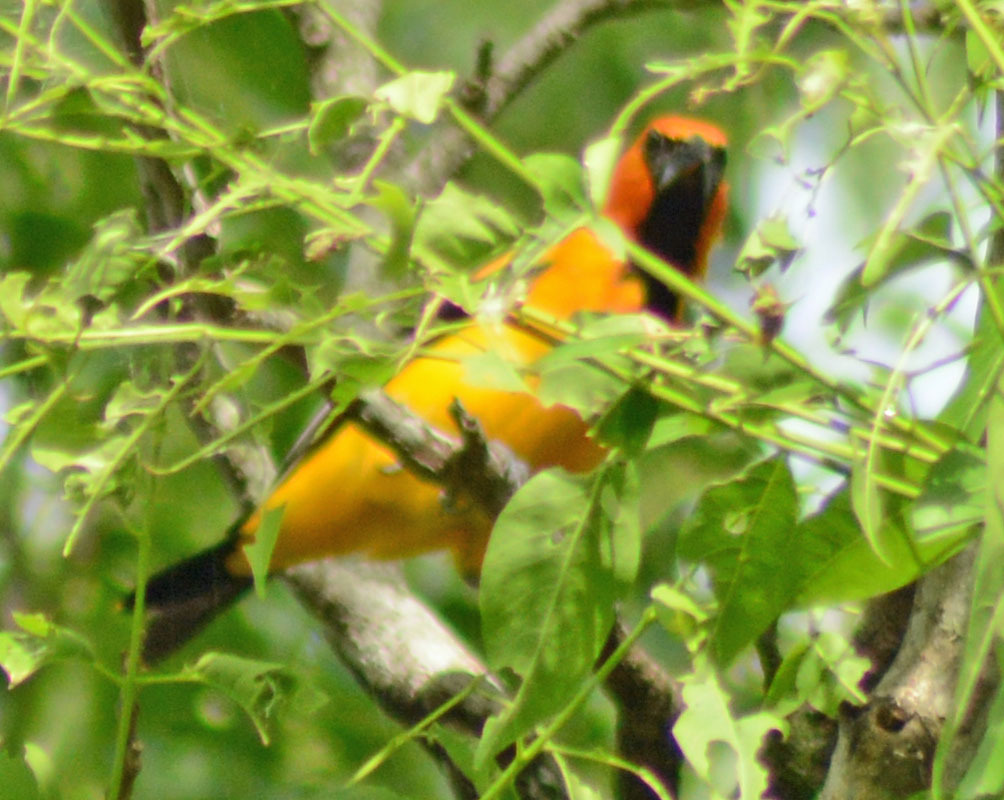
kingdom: Animalia
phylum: Chordata
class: Aves
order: Passeriformes
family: Icteridae
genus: Icterus
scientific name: Icterus gularis
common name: Altamira oriole
